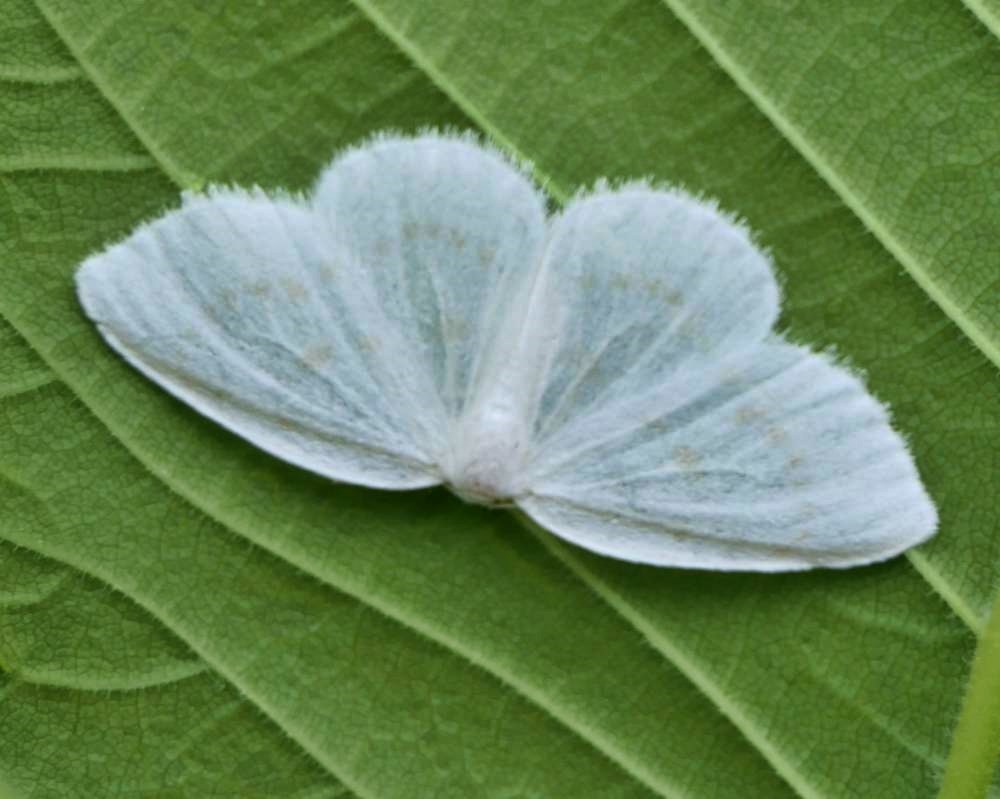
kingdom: Animalia
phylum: Arthropoda
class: Insecta
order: Lepidoptera
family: Drepanidae
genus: Eudeilinia
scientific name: Eudeilinia herminiata
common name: Northern eudeilinea moth
